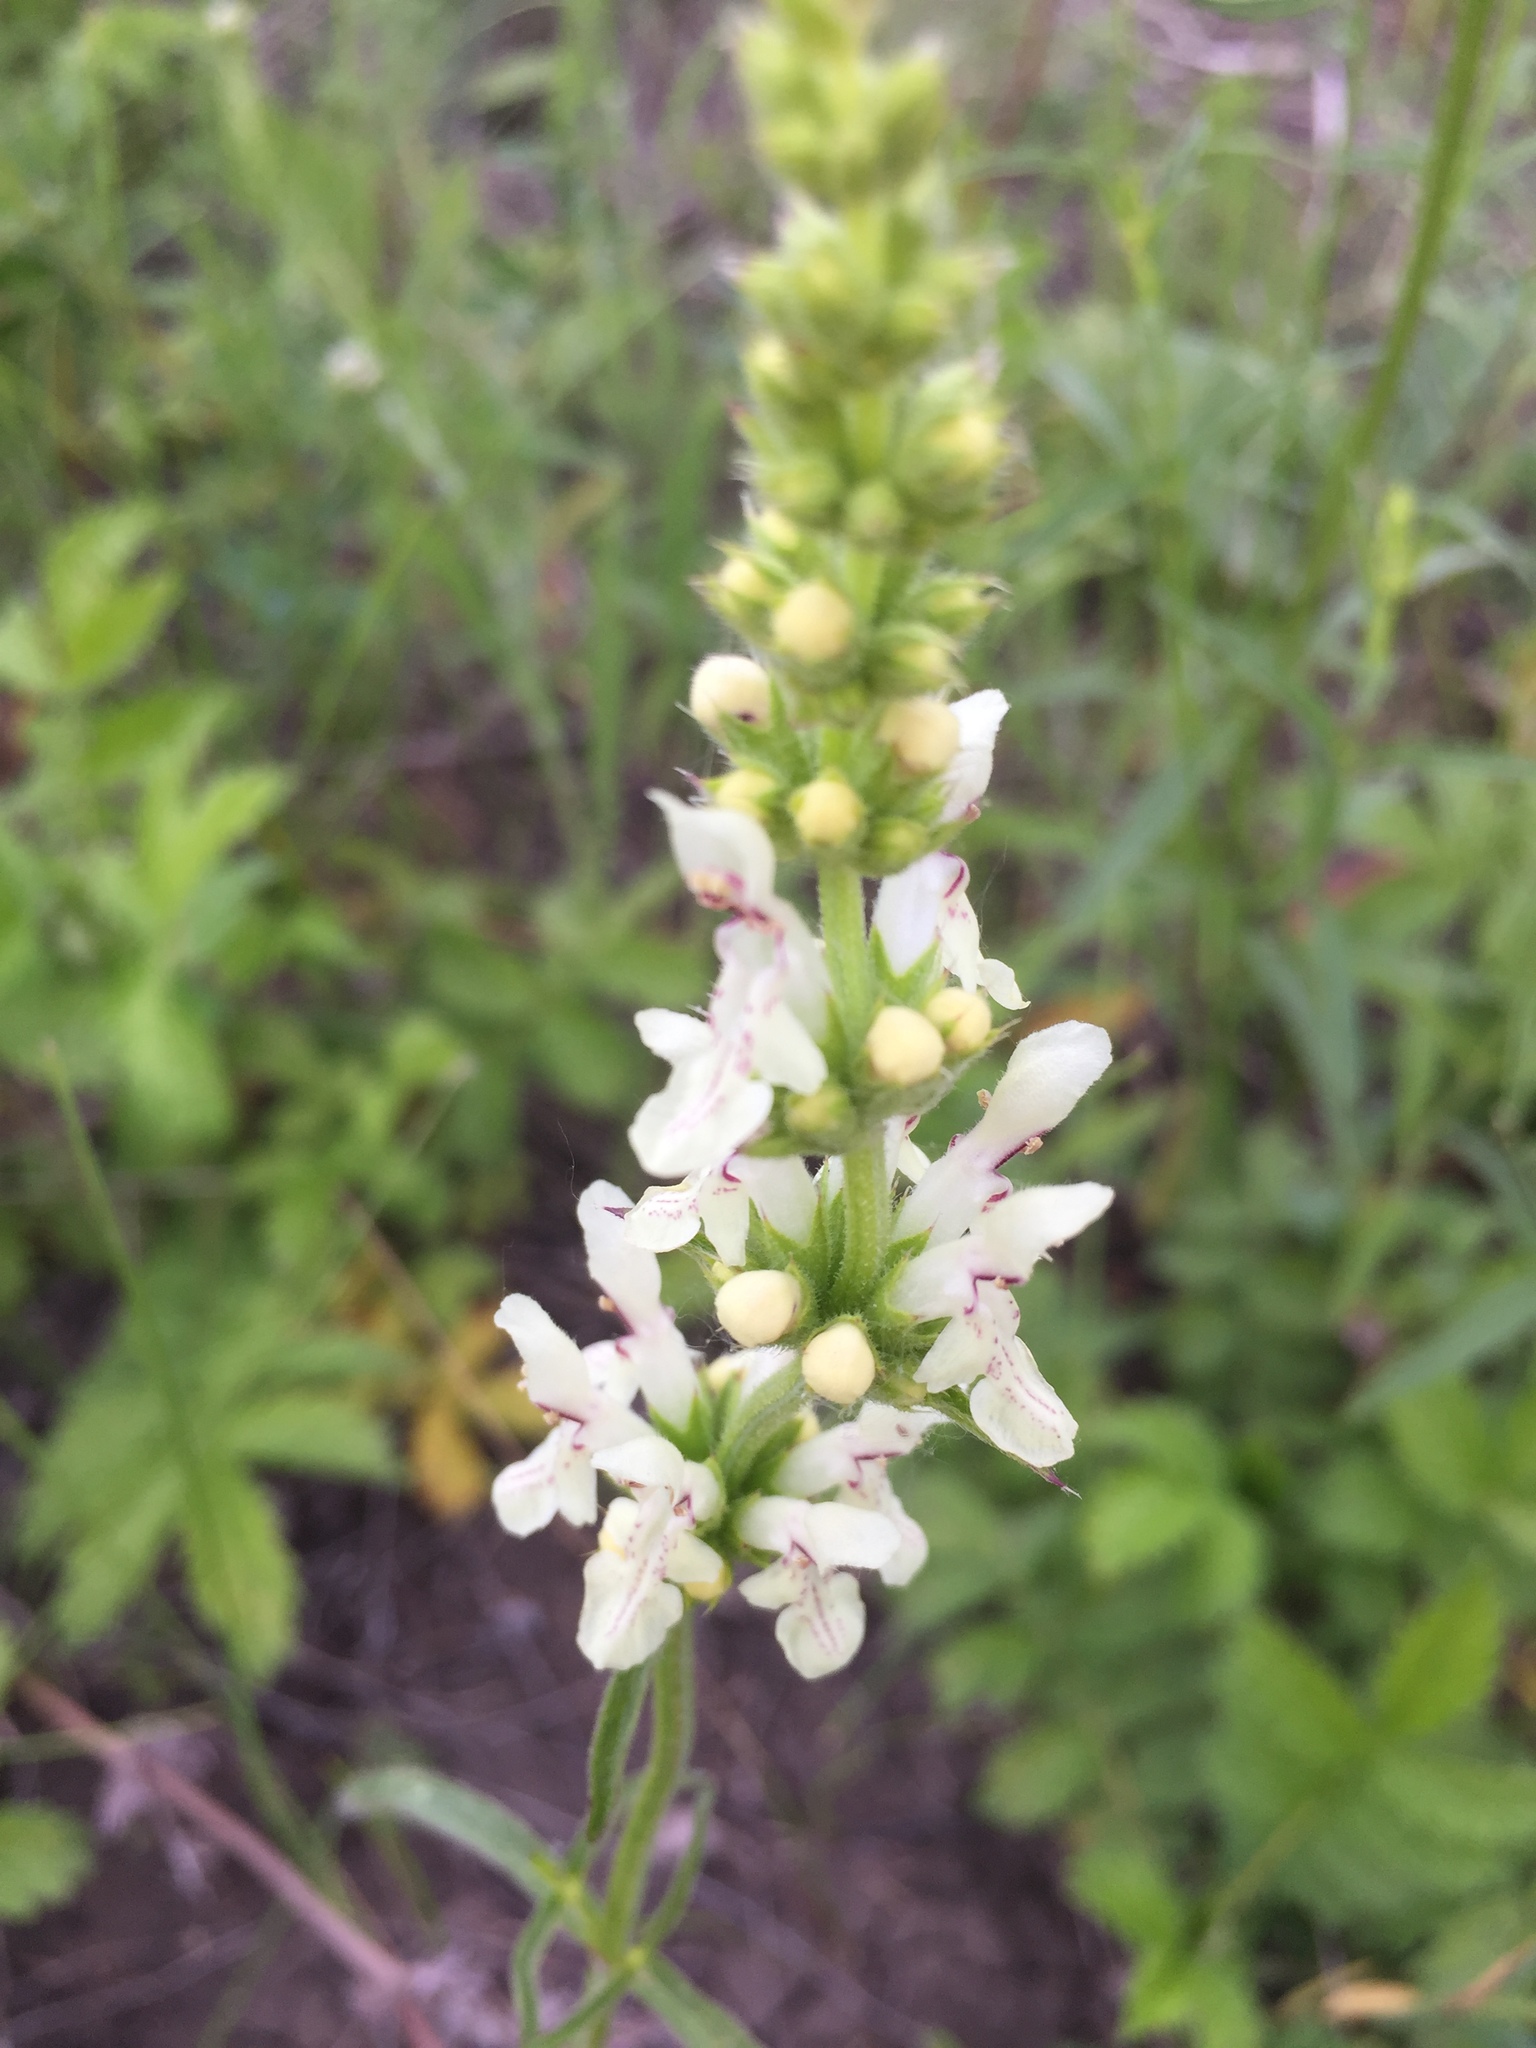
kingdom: Plantae
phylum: Tracheophyta
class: Magnoliopsida
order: Lamiales
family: Lamiaceae
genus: Stachys
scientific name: Stachys recta
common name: Perennial yellow-woundwort
